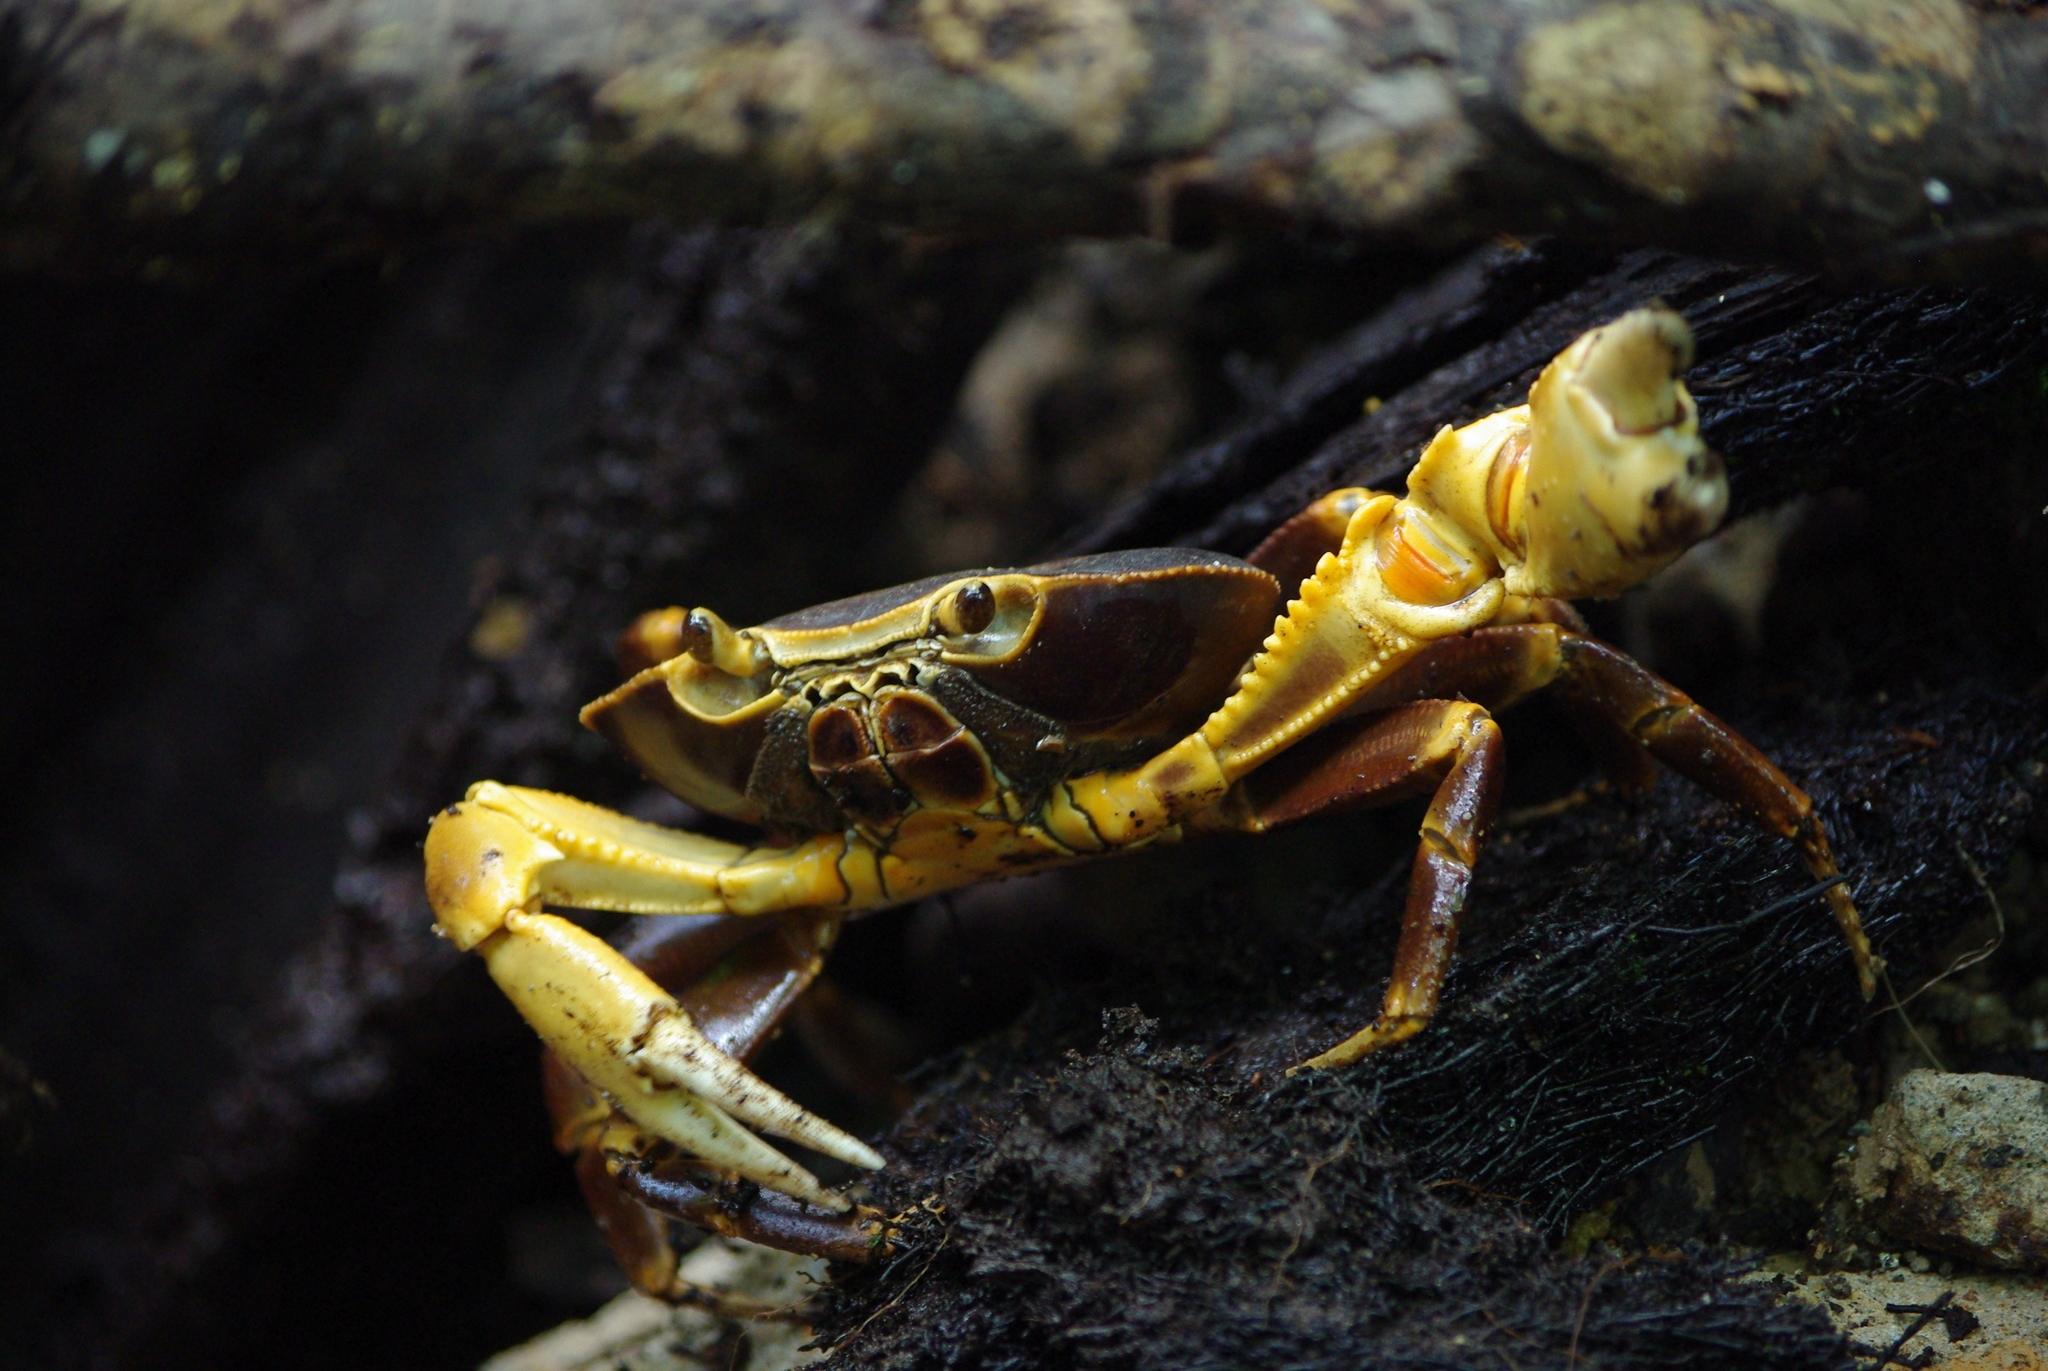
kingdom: Animalia
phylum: Arthropoda
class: Malacostraca
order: Decapoda
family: Pseudothelphusidae
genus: Guinotia
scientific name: Guinotia dentata
